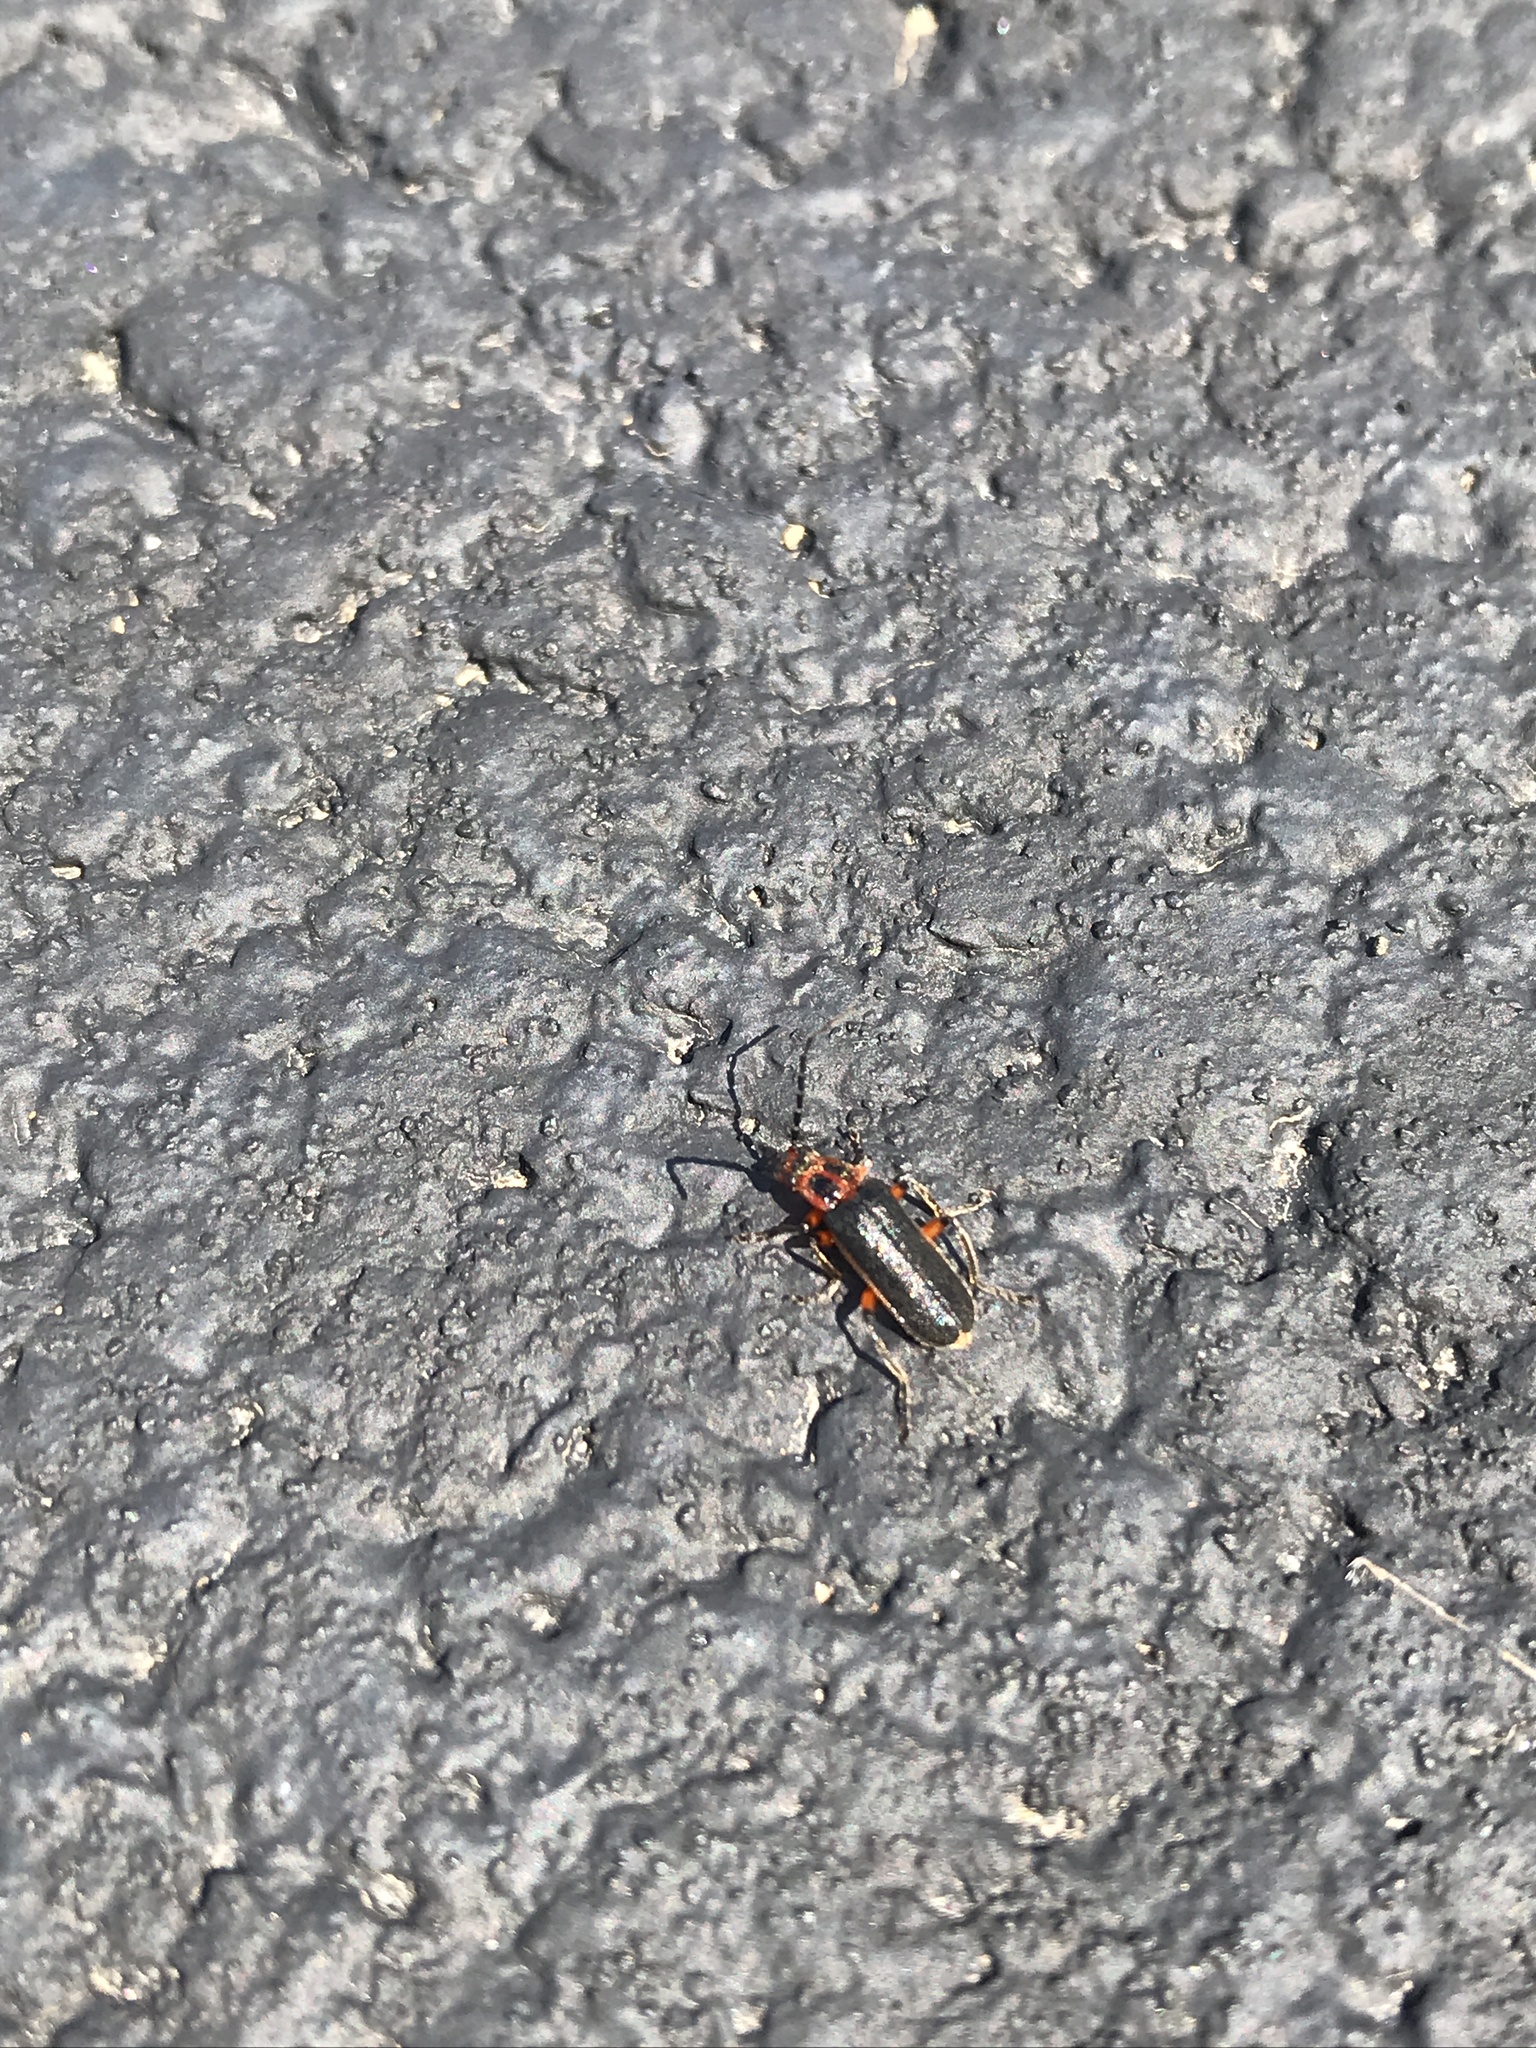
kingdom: Animalia
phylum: Arthropoda
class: Insecta
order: Coleoptera
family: Cantharidae
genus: Atalantycha
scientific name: Atalantycha bilineata
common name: Two-lined leatherwing
